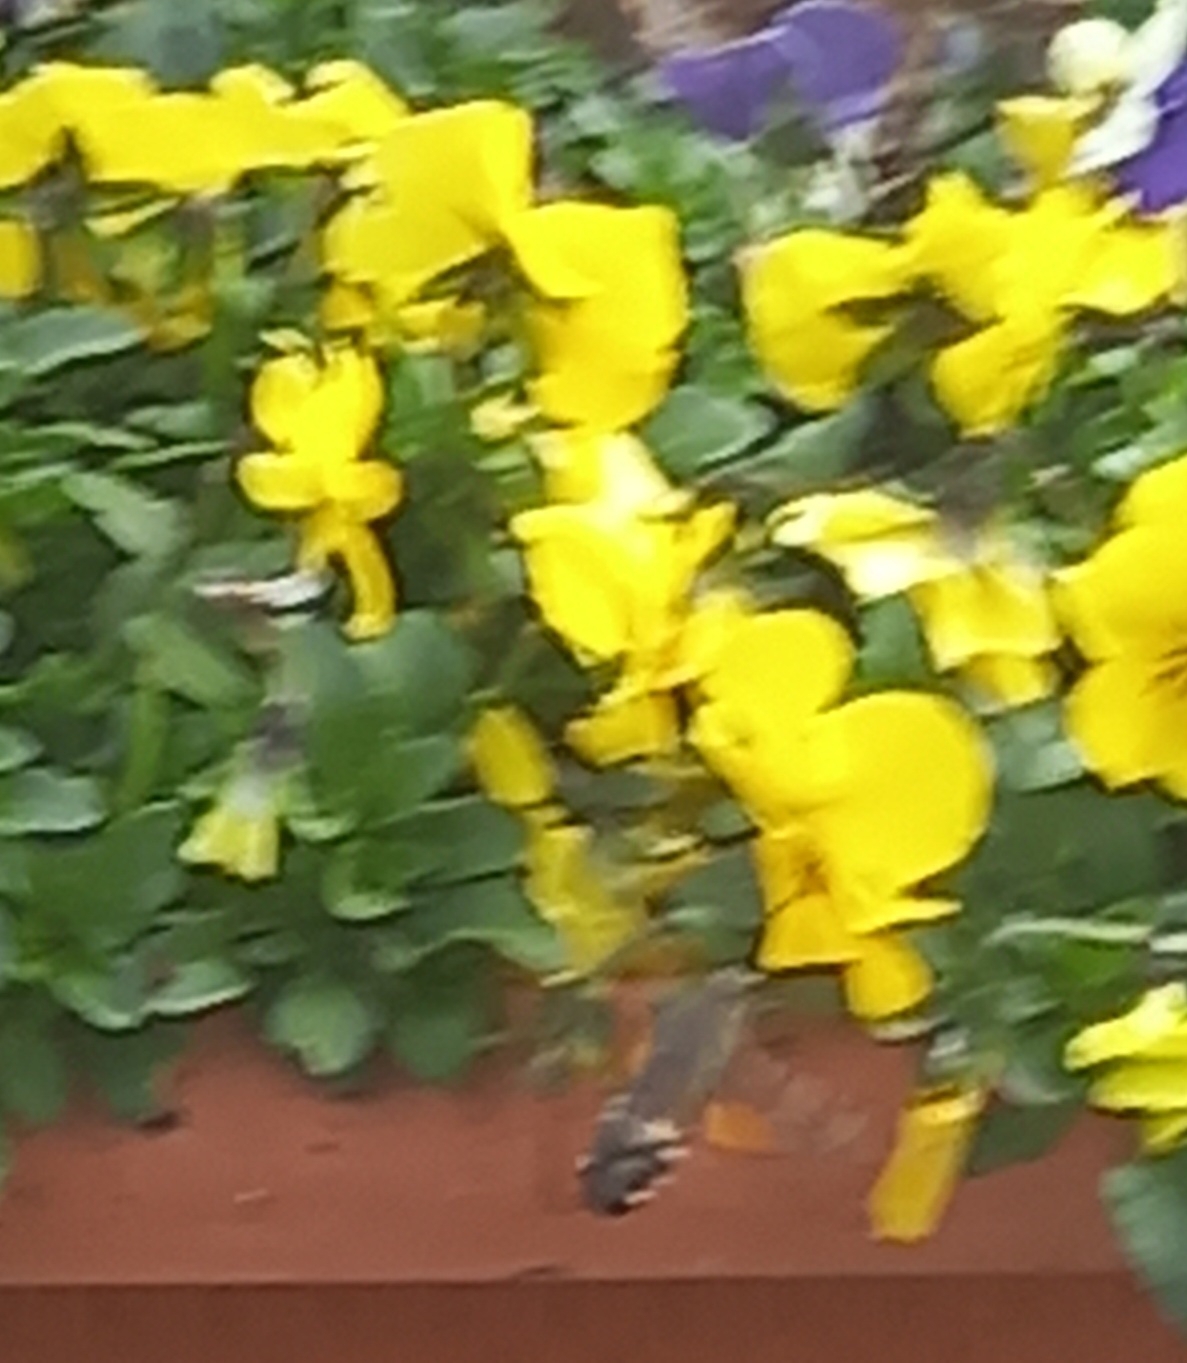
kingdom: Animalia
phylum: Arthropoda
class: Insecta
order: Lepidoptera
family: Sphingidae
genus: Macroglossum
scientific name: Macroglossum stellatarum
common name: Humming-bird hawk-moth
